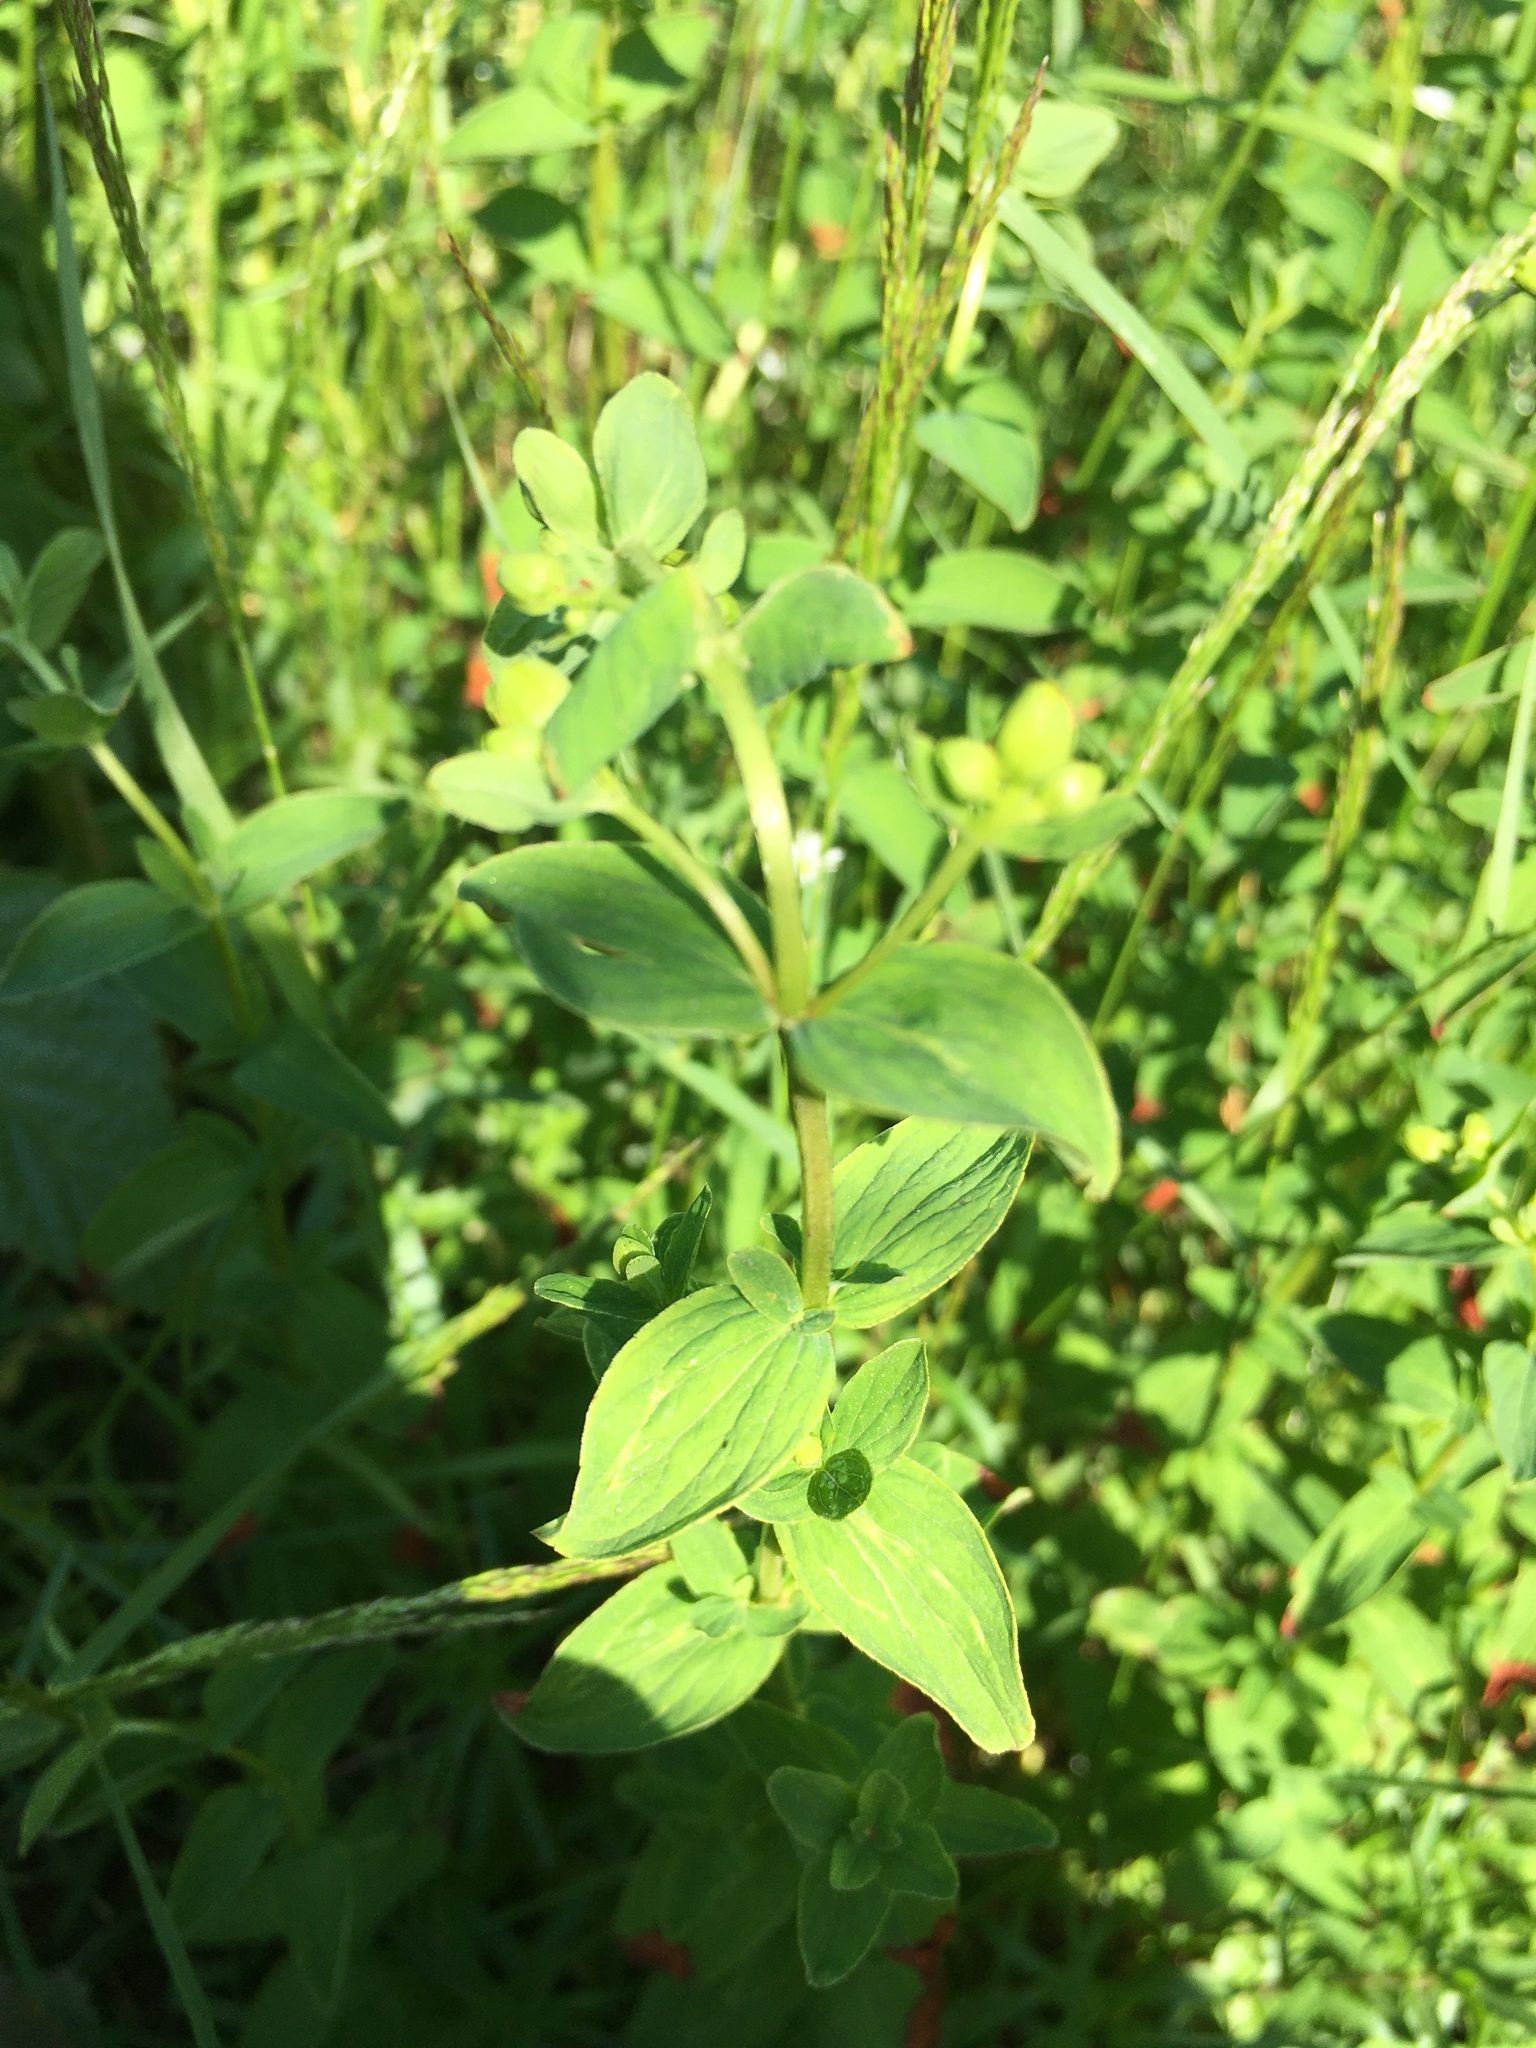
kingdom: Plantae
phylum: Tracheophyta
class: Magnoliopsida
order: Malpighiales
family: Hypericaceae
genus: Hypericum
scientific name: Hypericum maculatum
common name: Imperforate st. john's-wort
